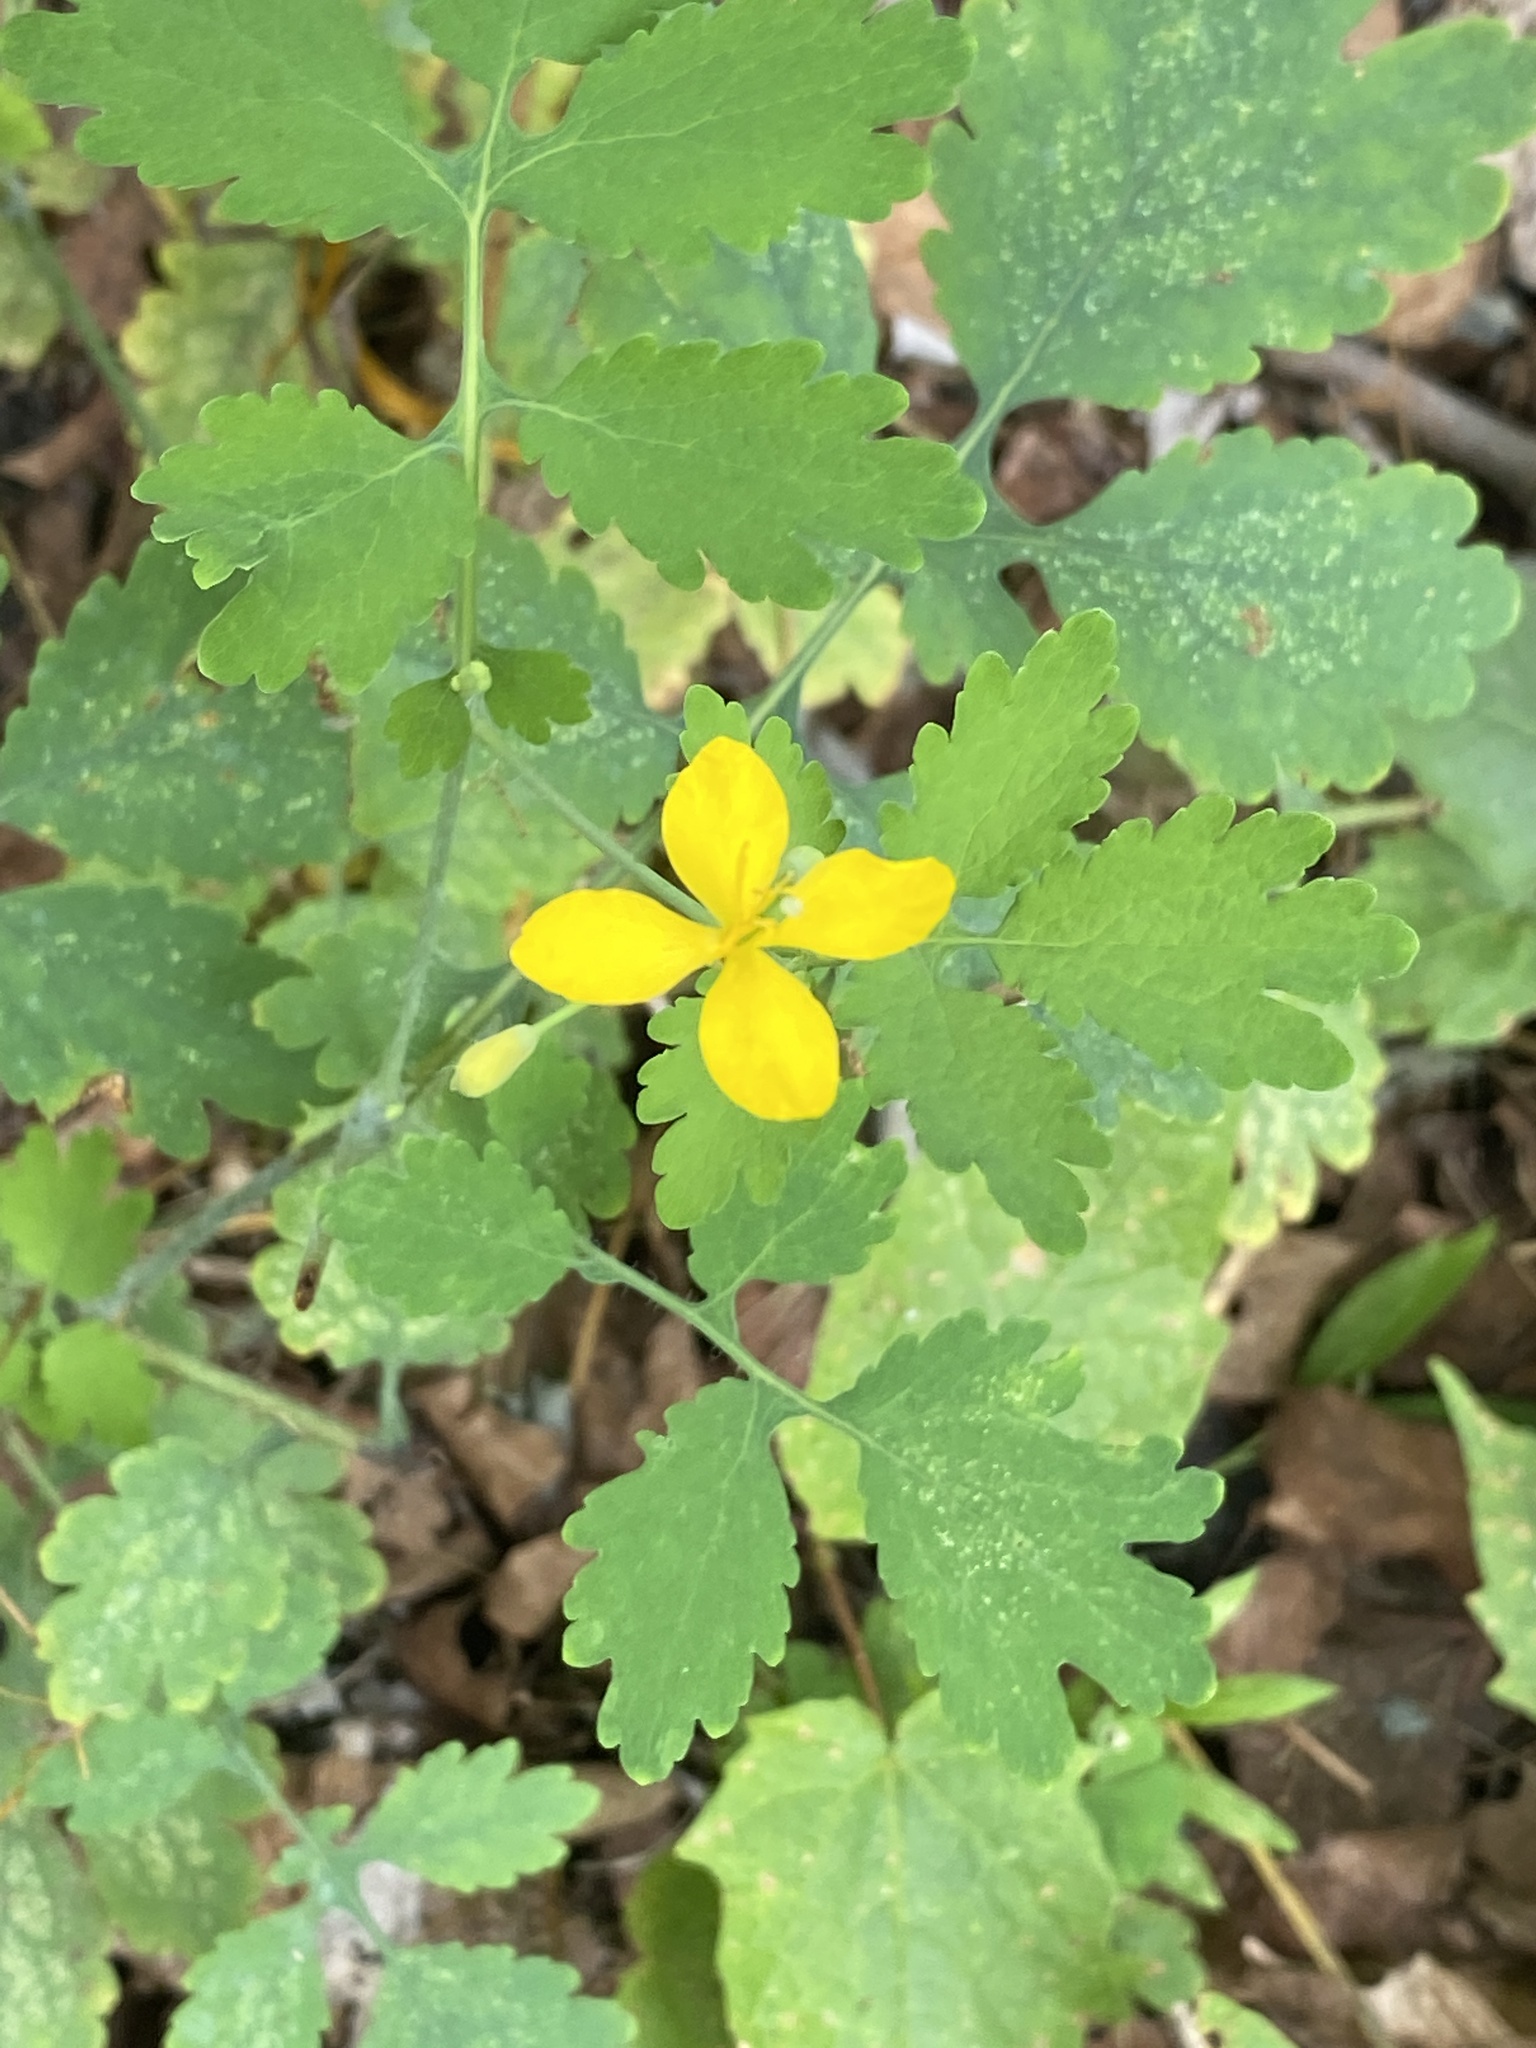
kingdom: Plantae
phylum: Tracheophyta
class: Magnoliopsida
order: Ranunculales
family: Papaveraceae
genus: Chelidonium
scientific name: Chelidonium majus
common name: Greater celandine
